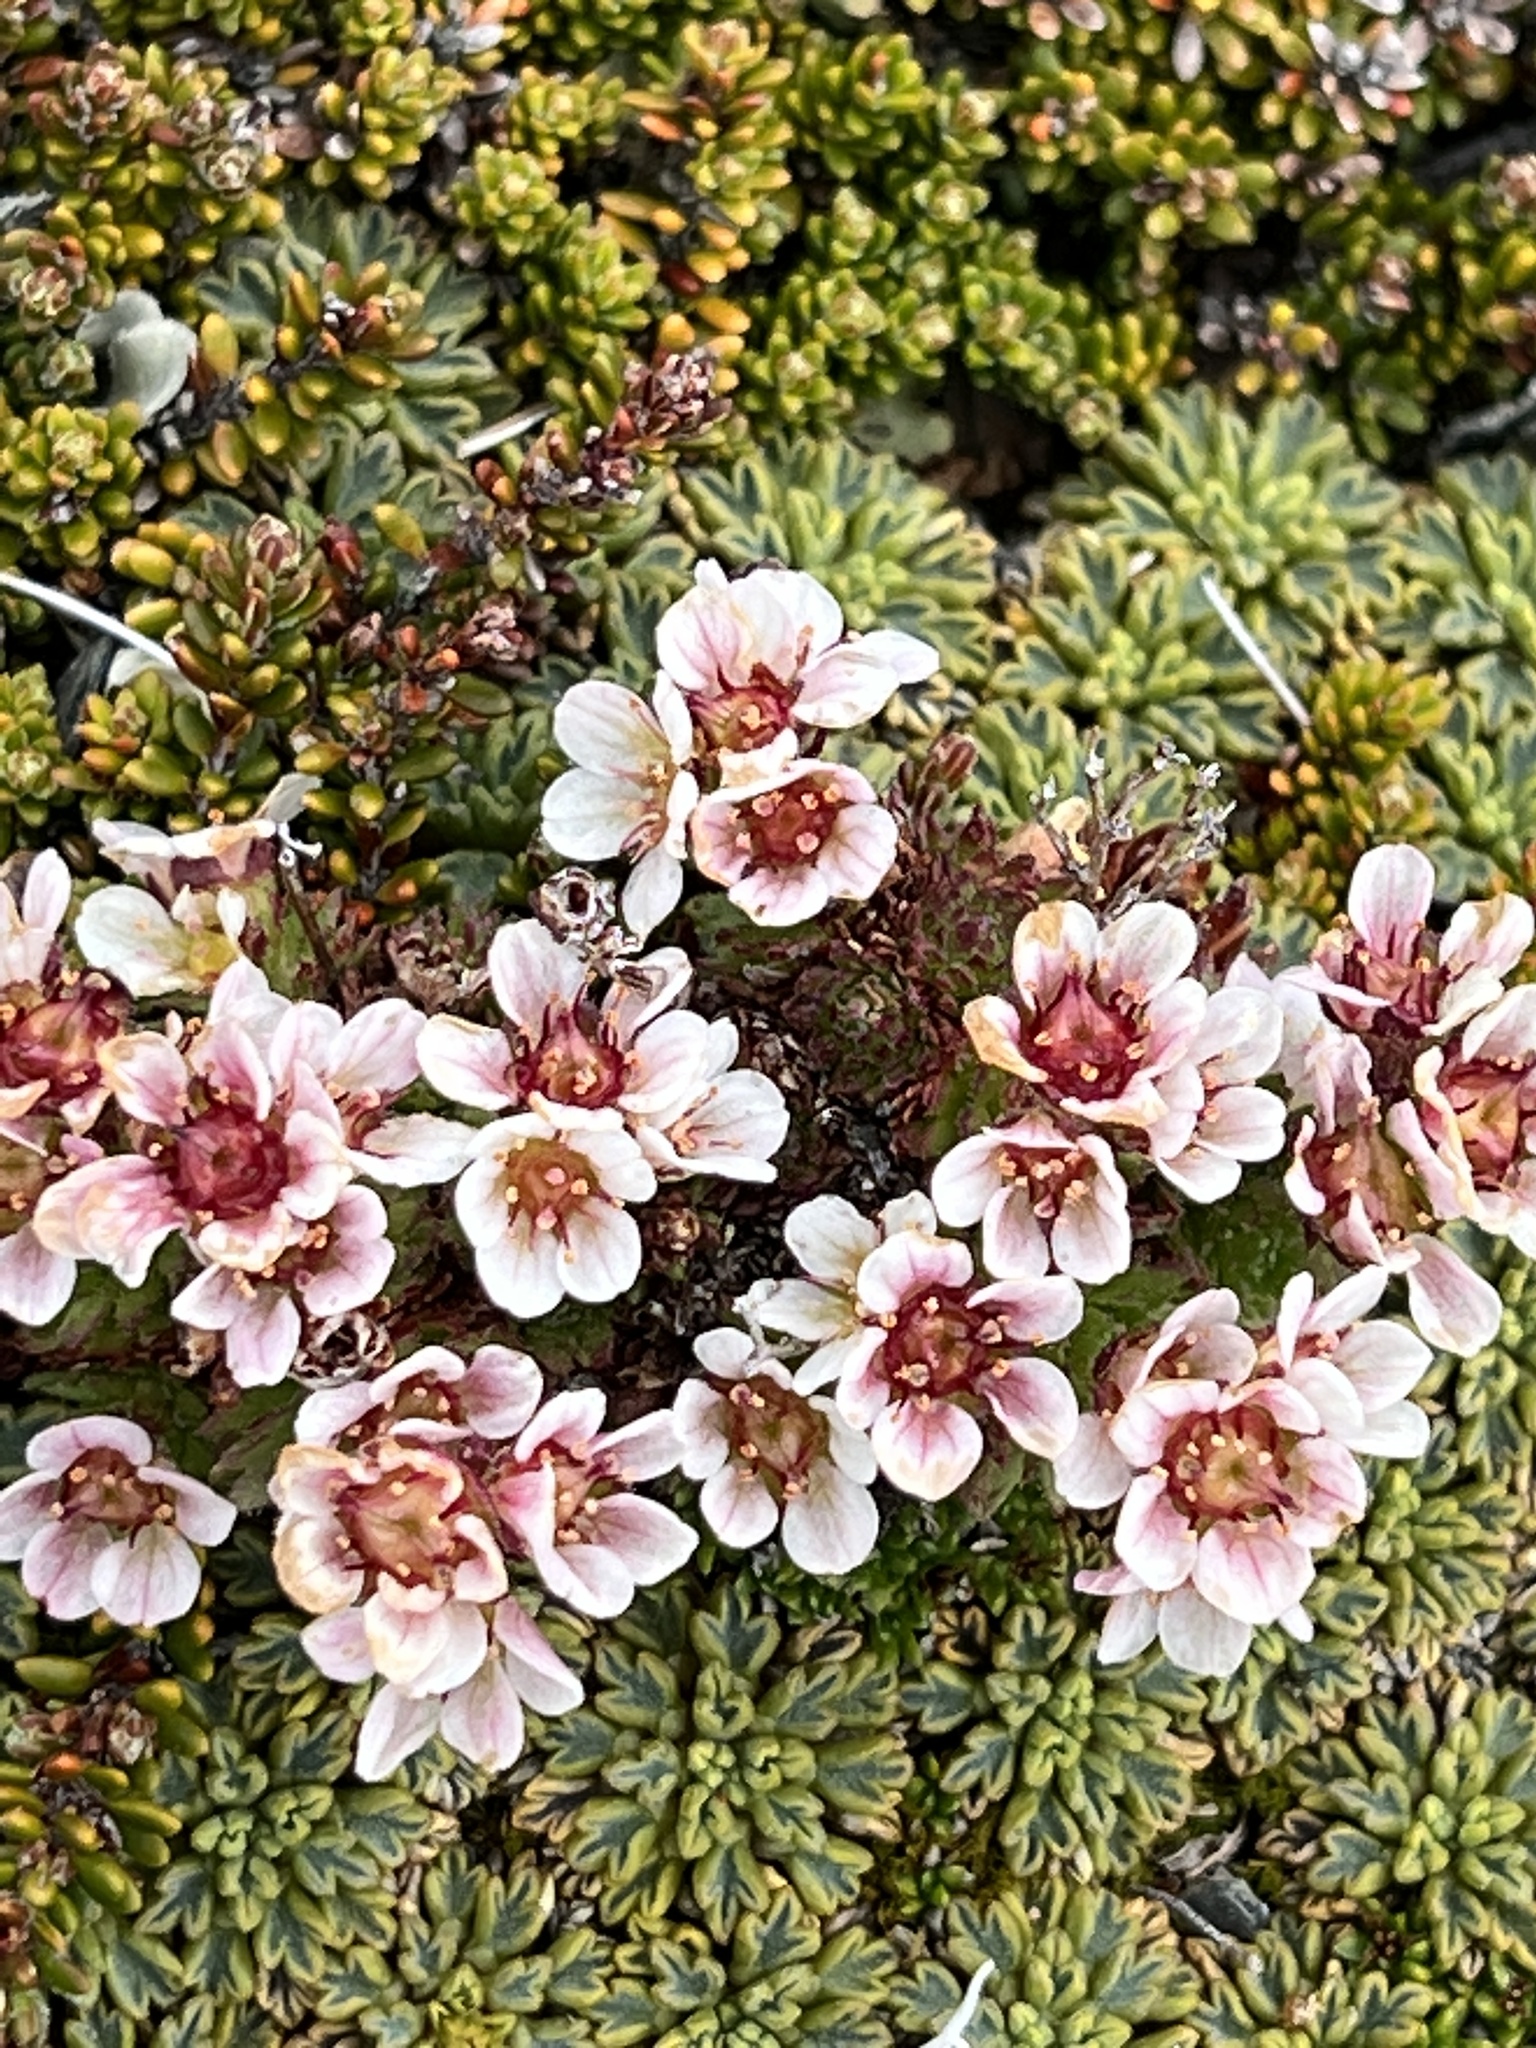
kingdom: Plantae
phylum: Tracheophyta
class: Magnoliopsida
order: Saxifragales
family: Saxifragaceae
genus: Saxifraga
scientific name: Saxifraga magellanica
